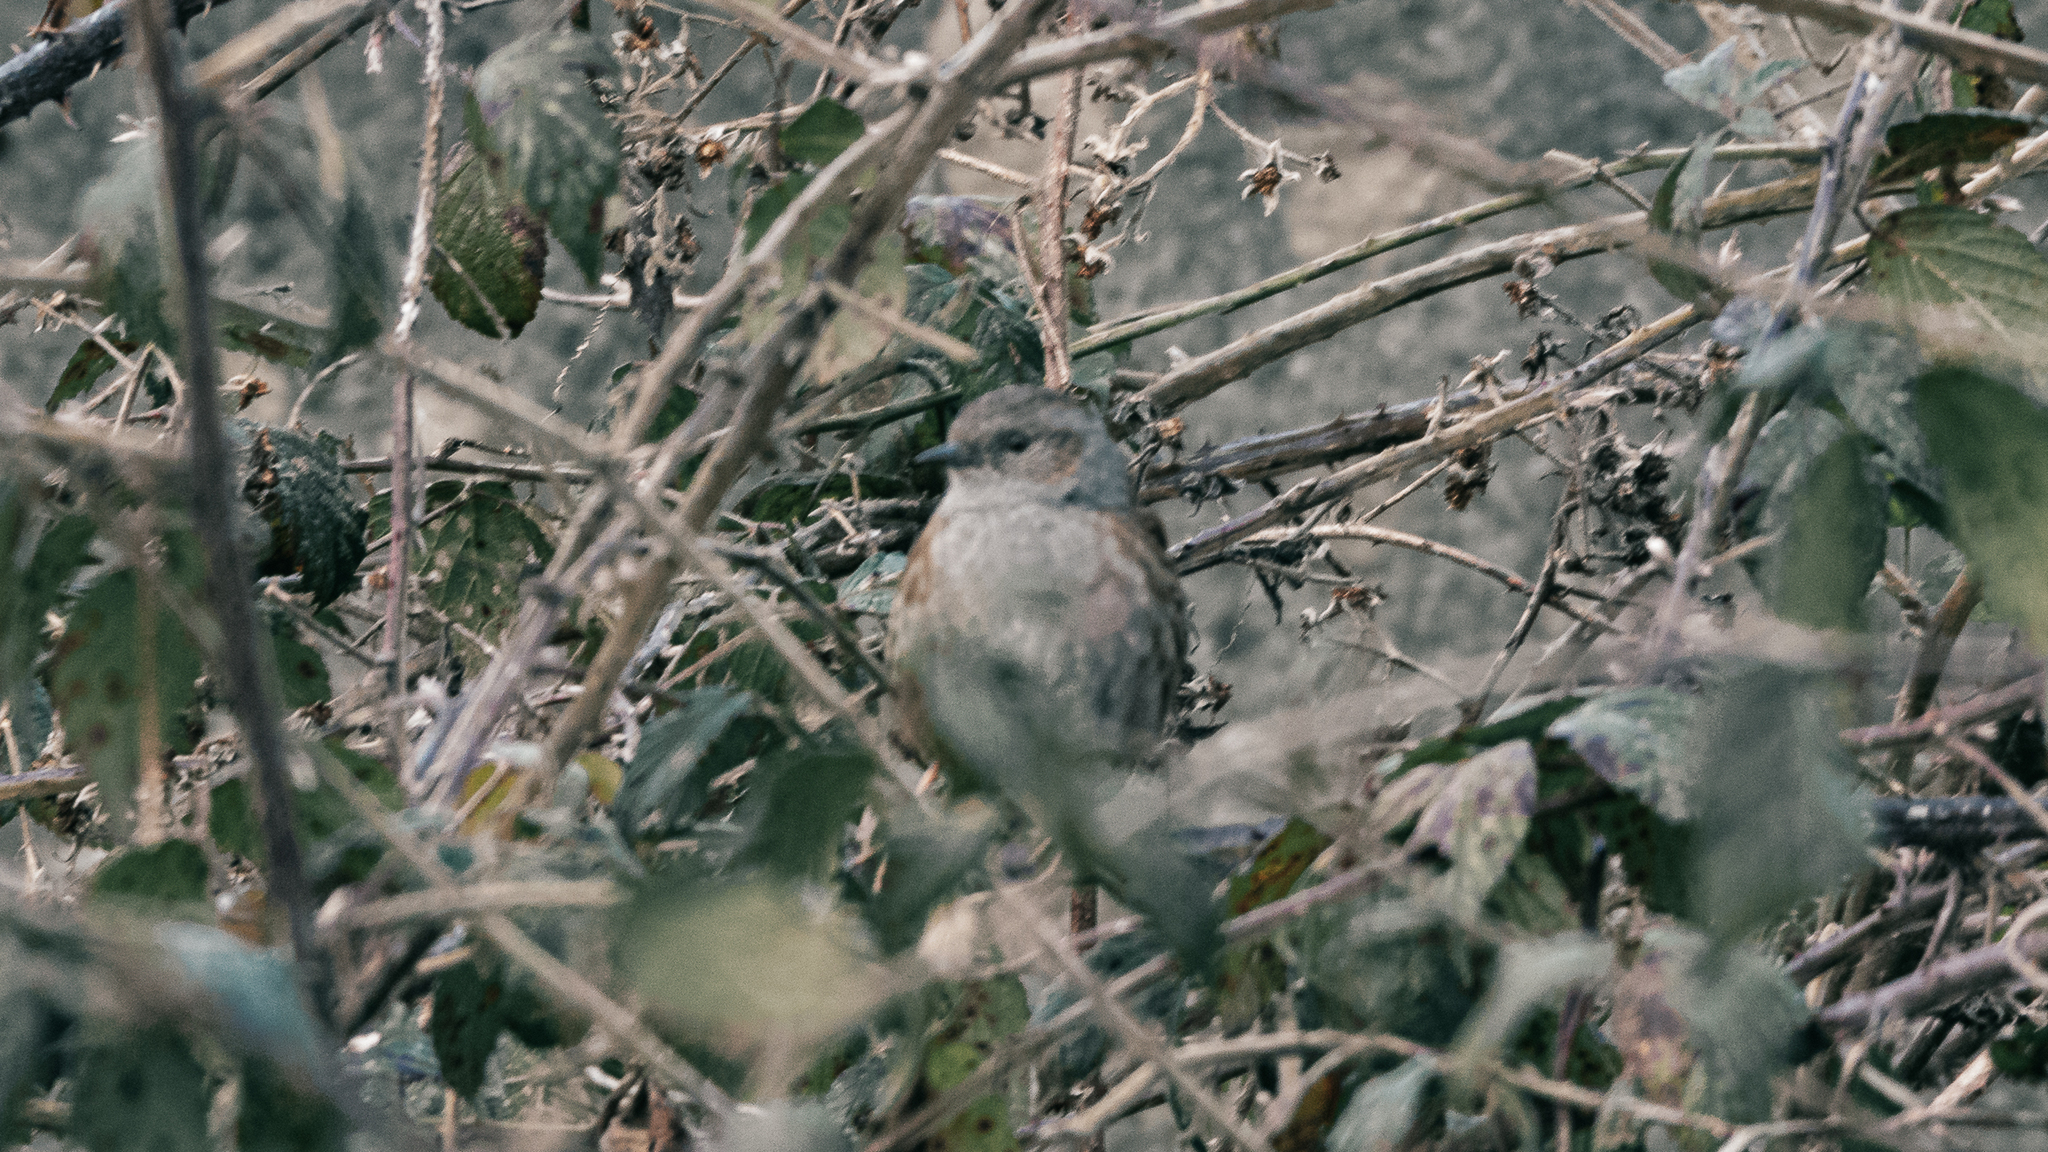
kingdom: Animalia
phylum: Chordata
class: Aves
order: Passeriformes
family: Prunellidae
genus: Prunella
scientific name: Prunella modularis
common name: Dunnock
